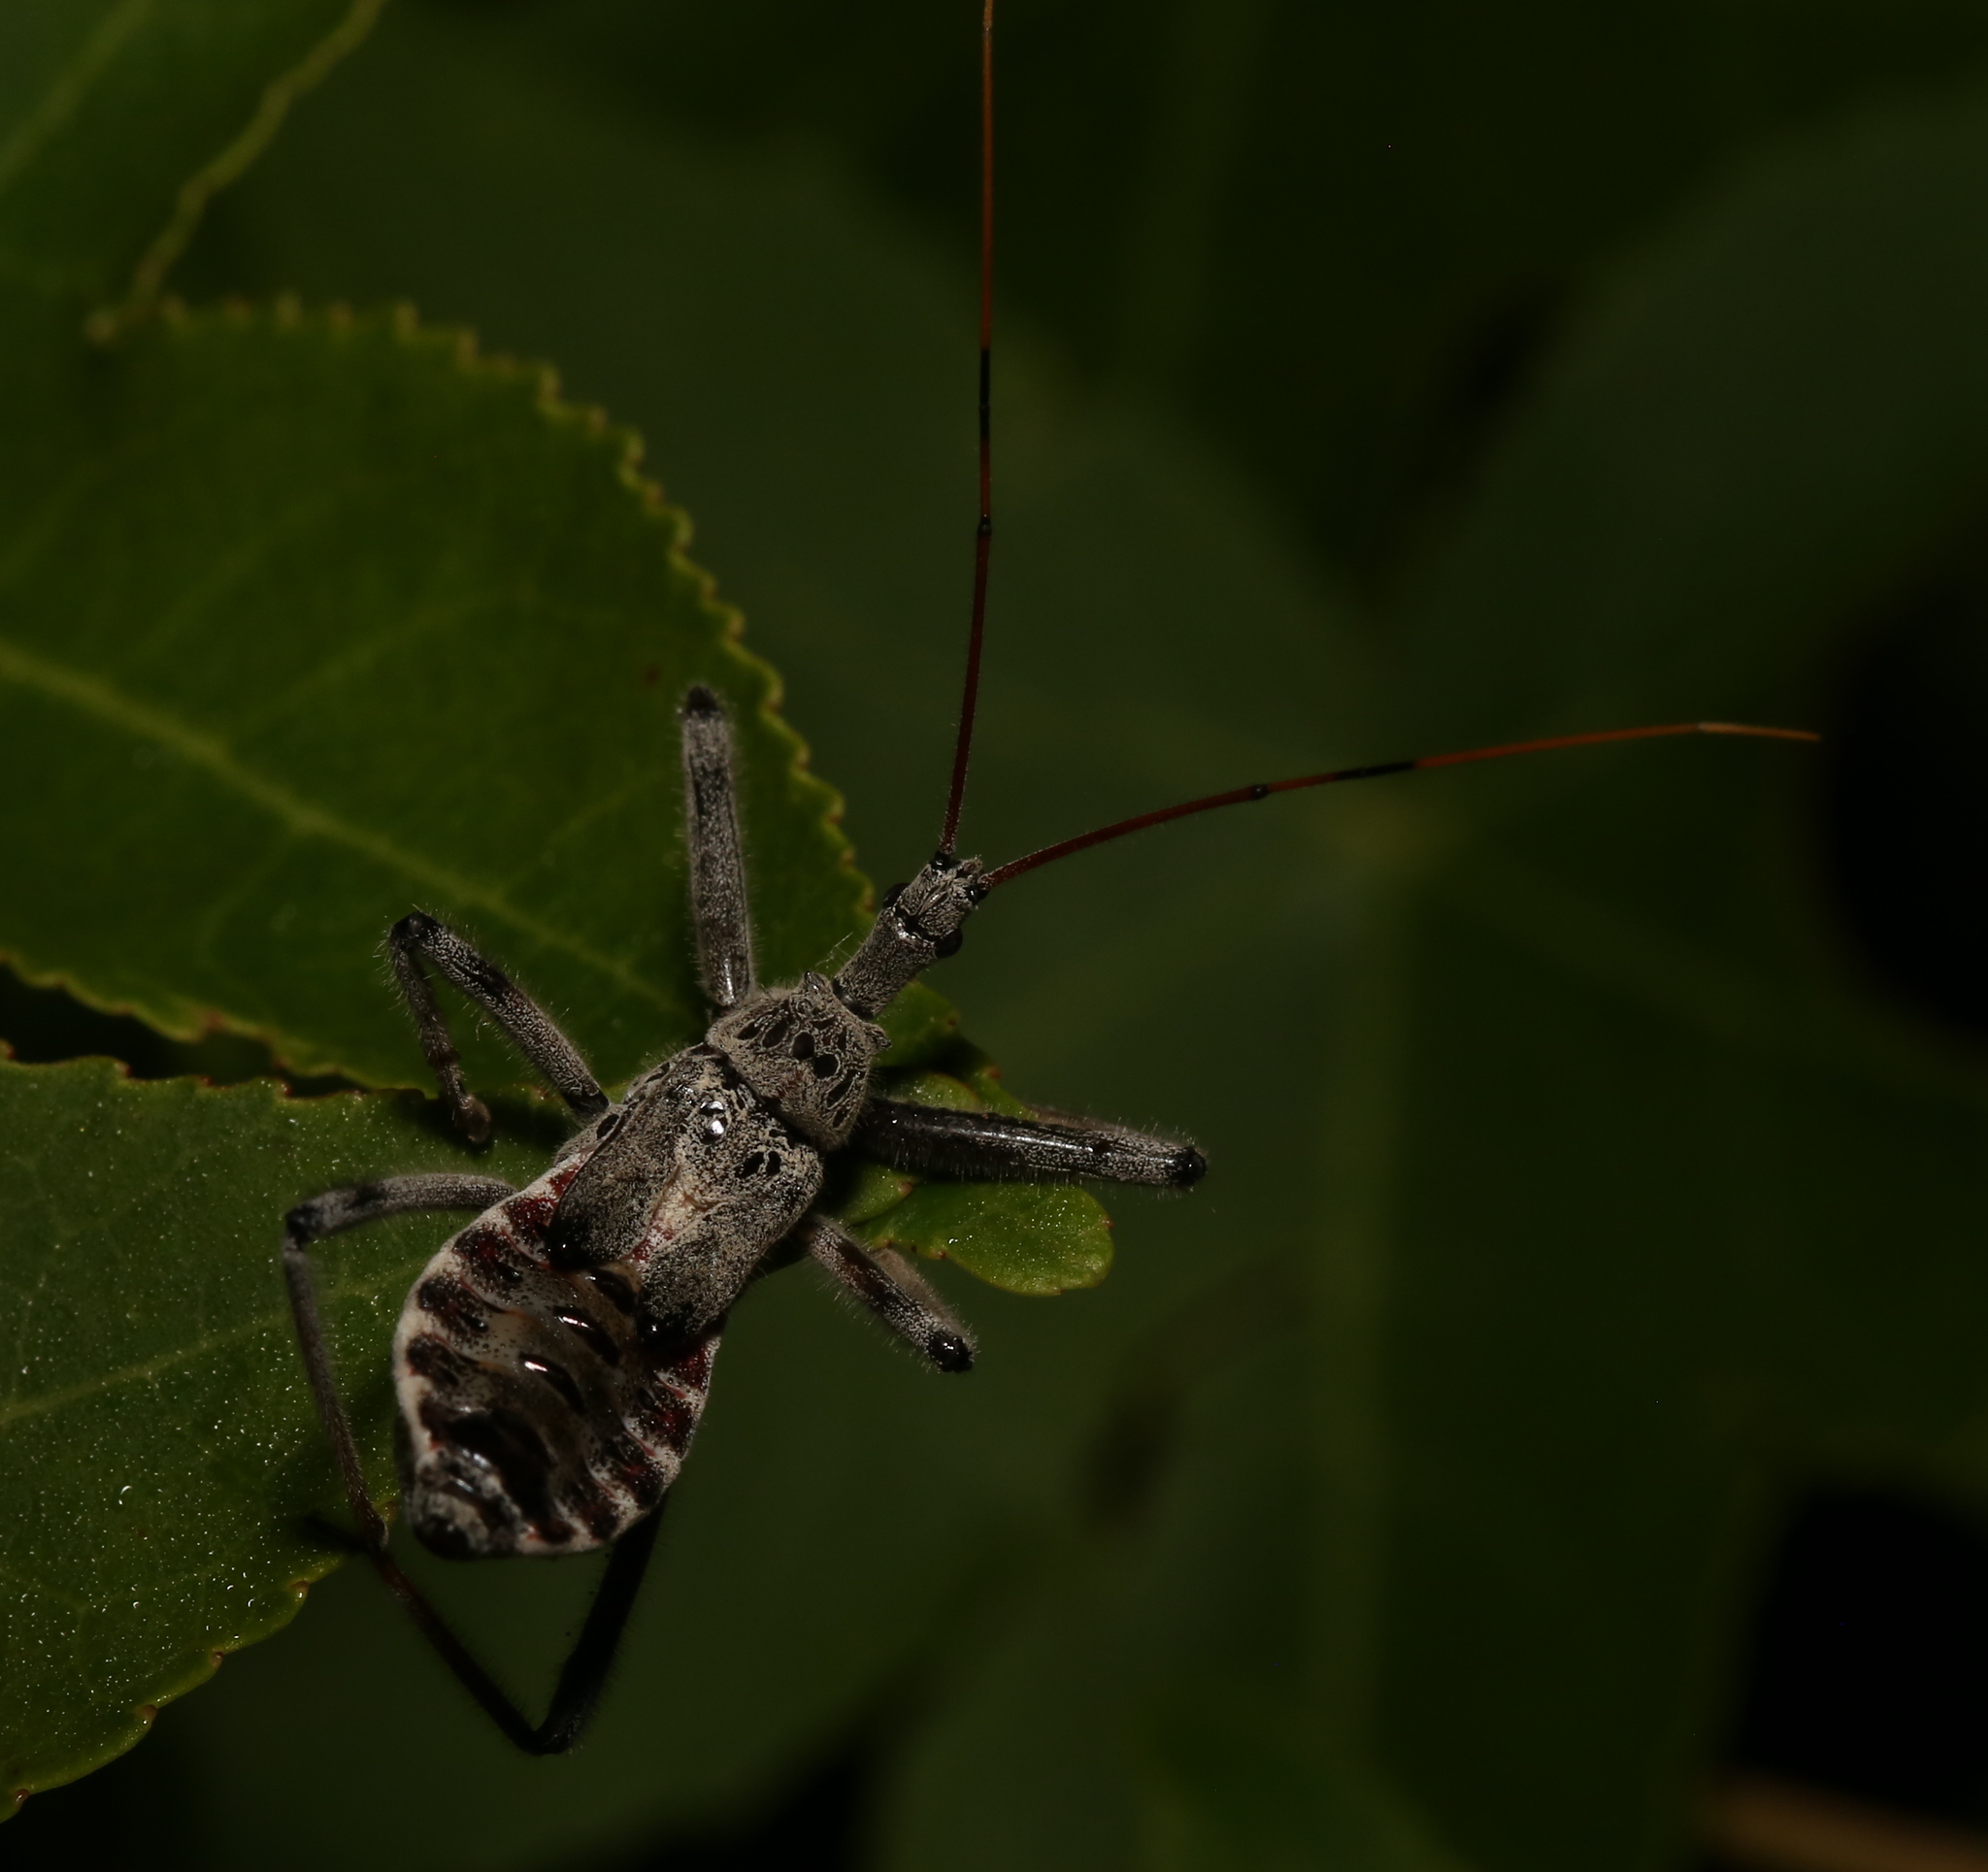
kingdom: Animalia
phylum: Arthropoda
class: Insecta
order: Hemiptera
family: Reduviidae
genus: Arilus
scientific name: Arilus cristatus
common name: North american wheel bug
